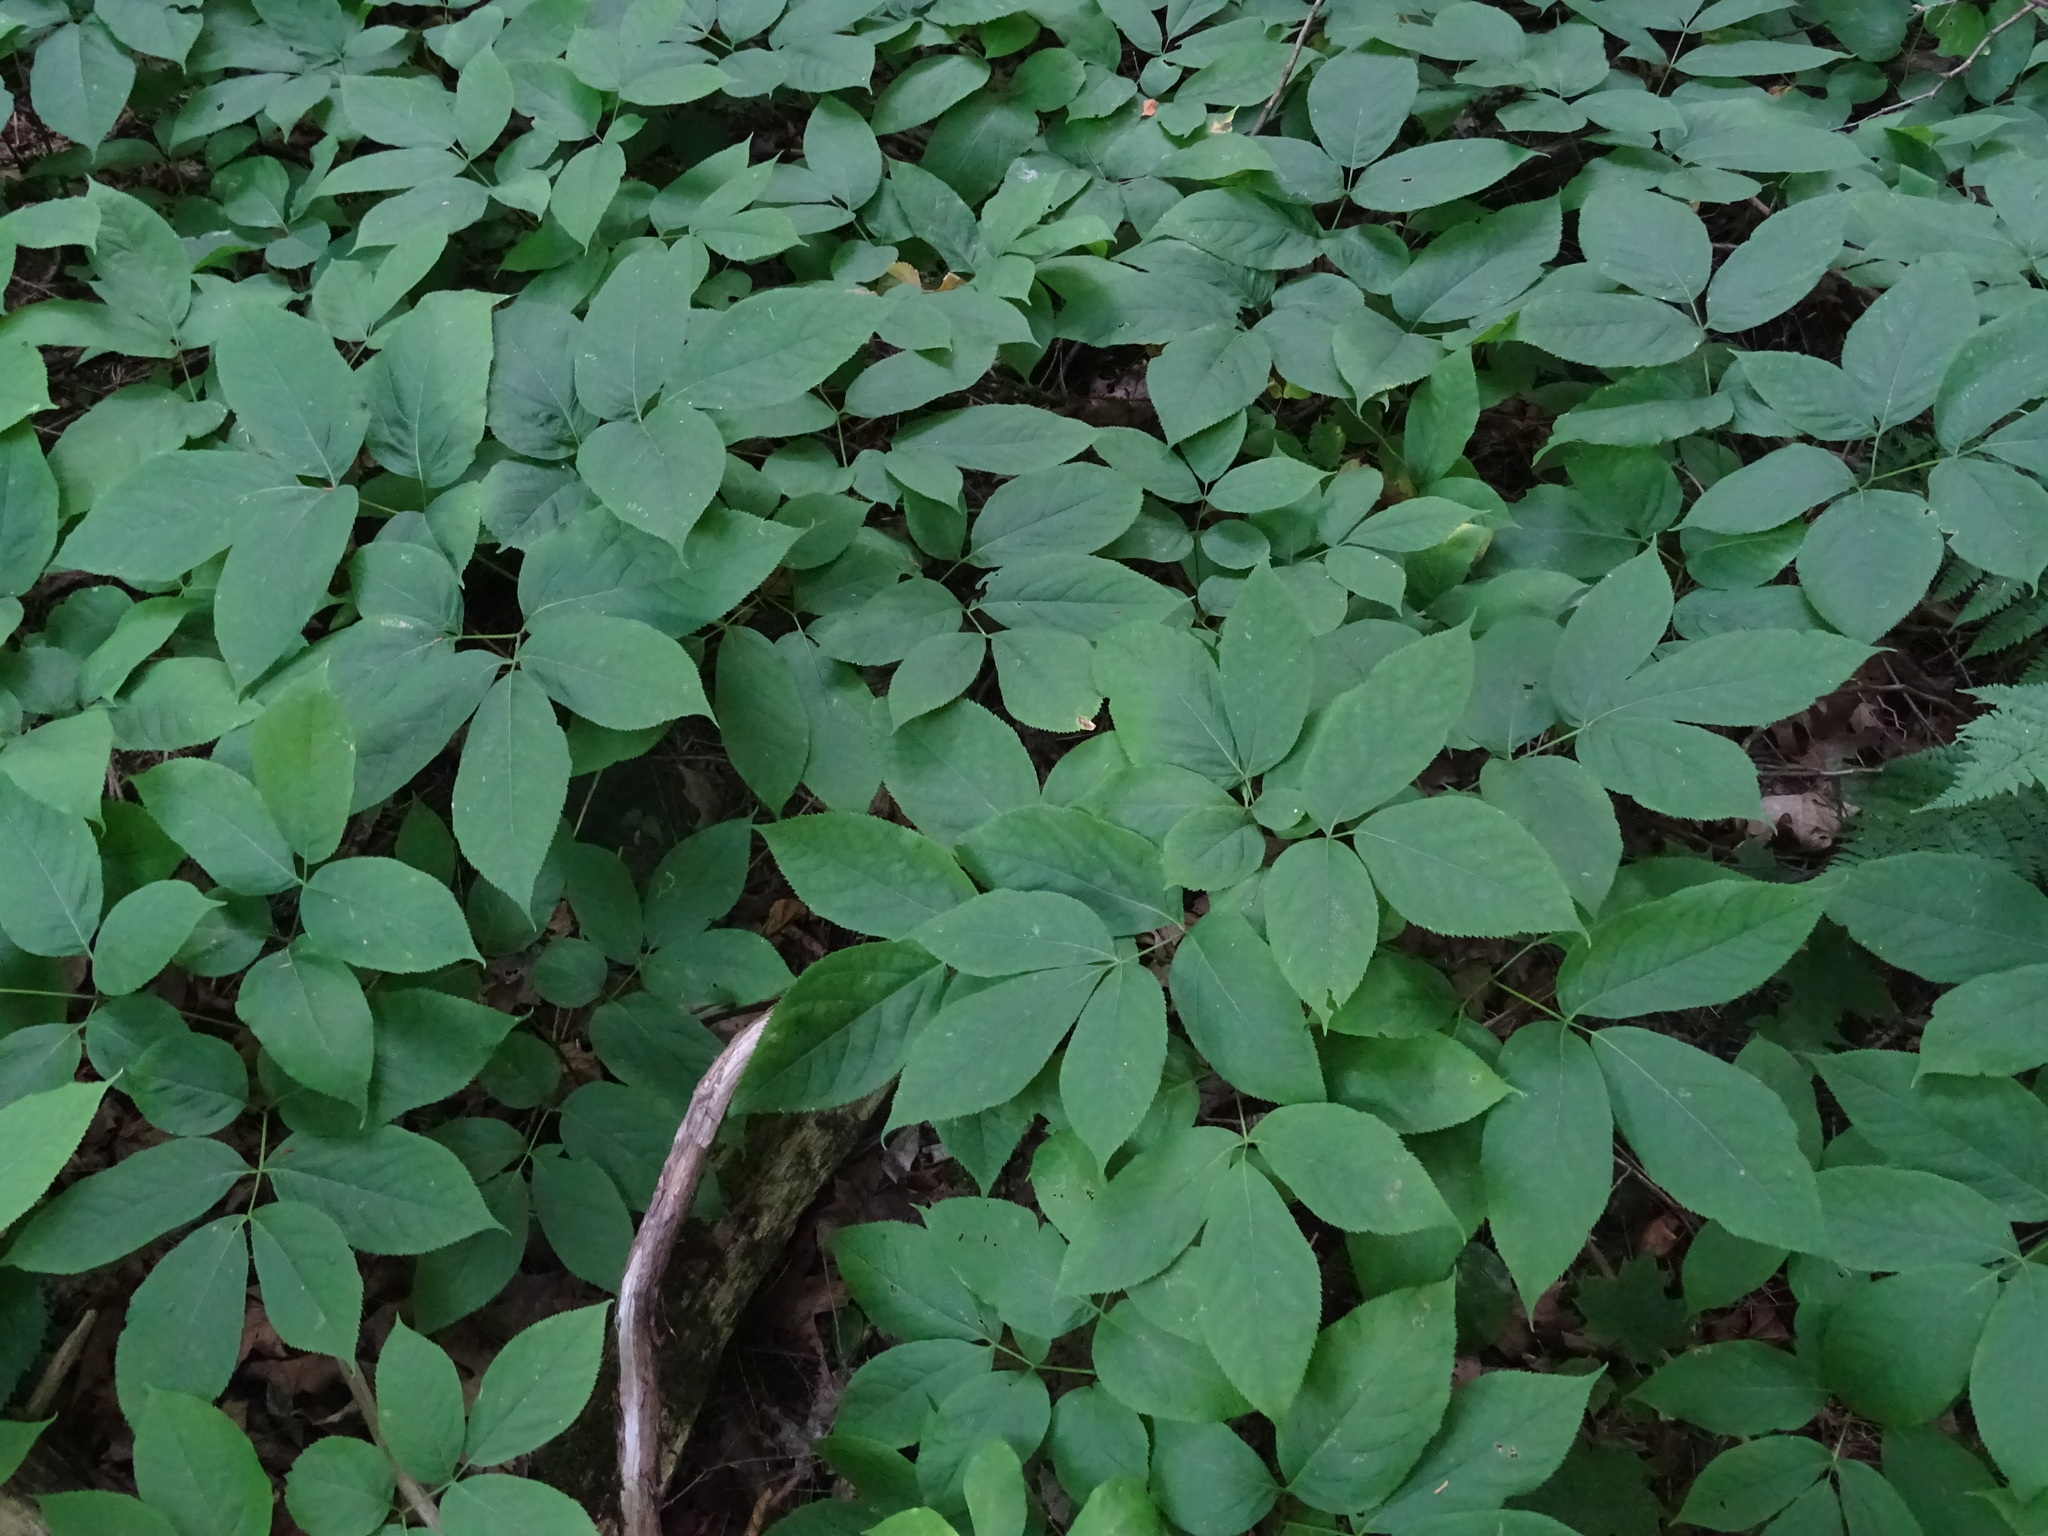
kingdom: Plantae
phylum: Tracheophyta
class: Magnoliopsida
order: Apiales
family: Araliaceae
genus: Aralia
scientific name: Aralia nudicaulis
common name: Wild sarsaparilla
